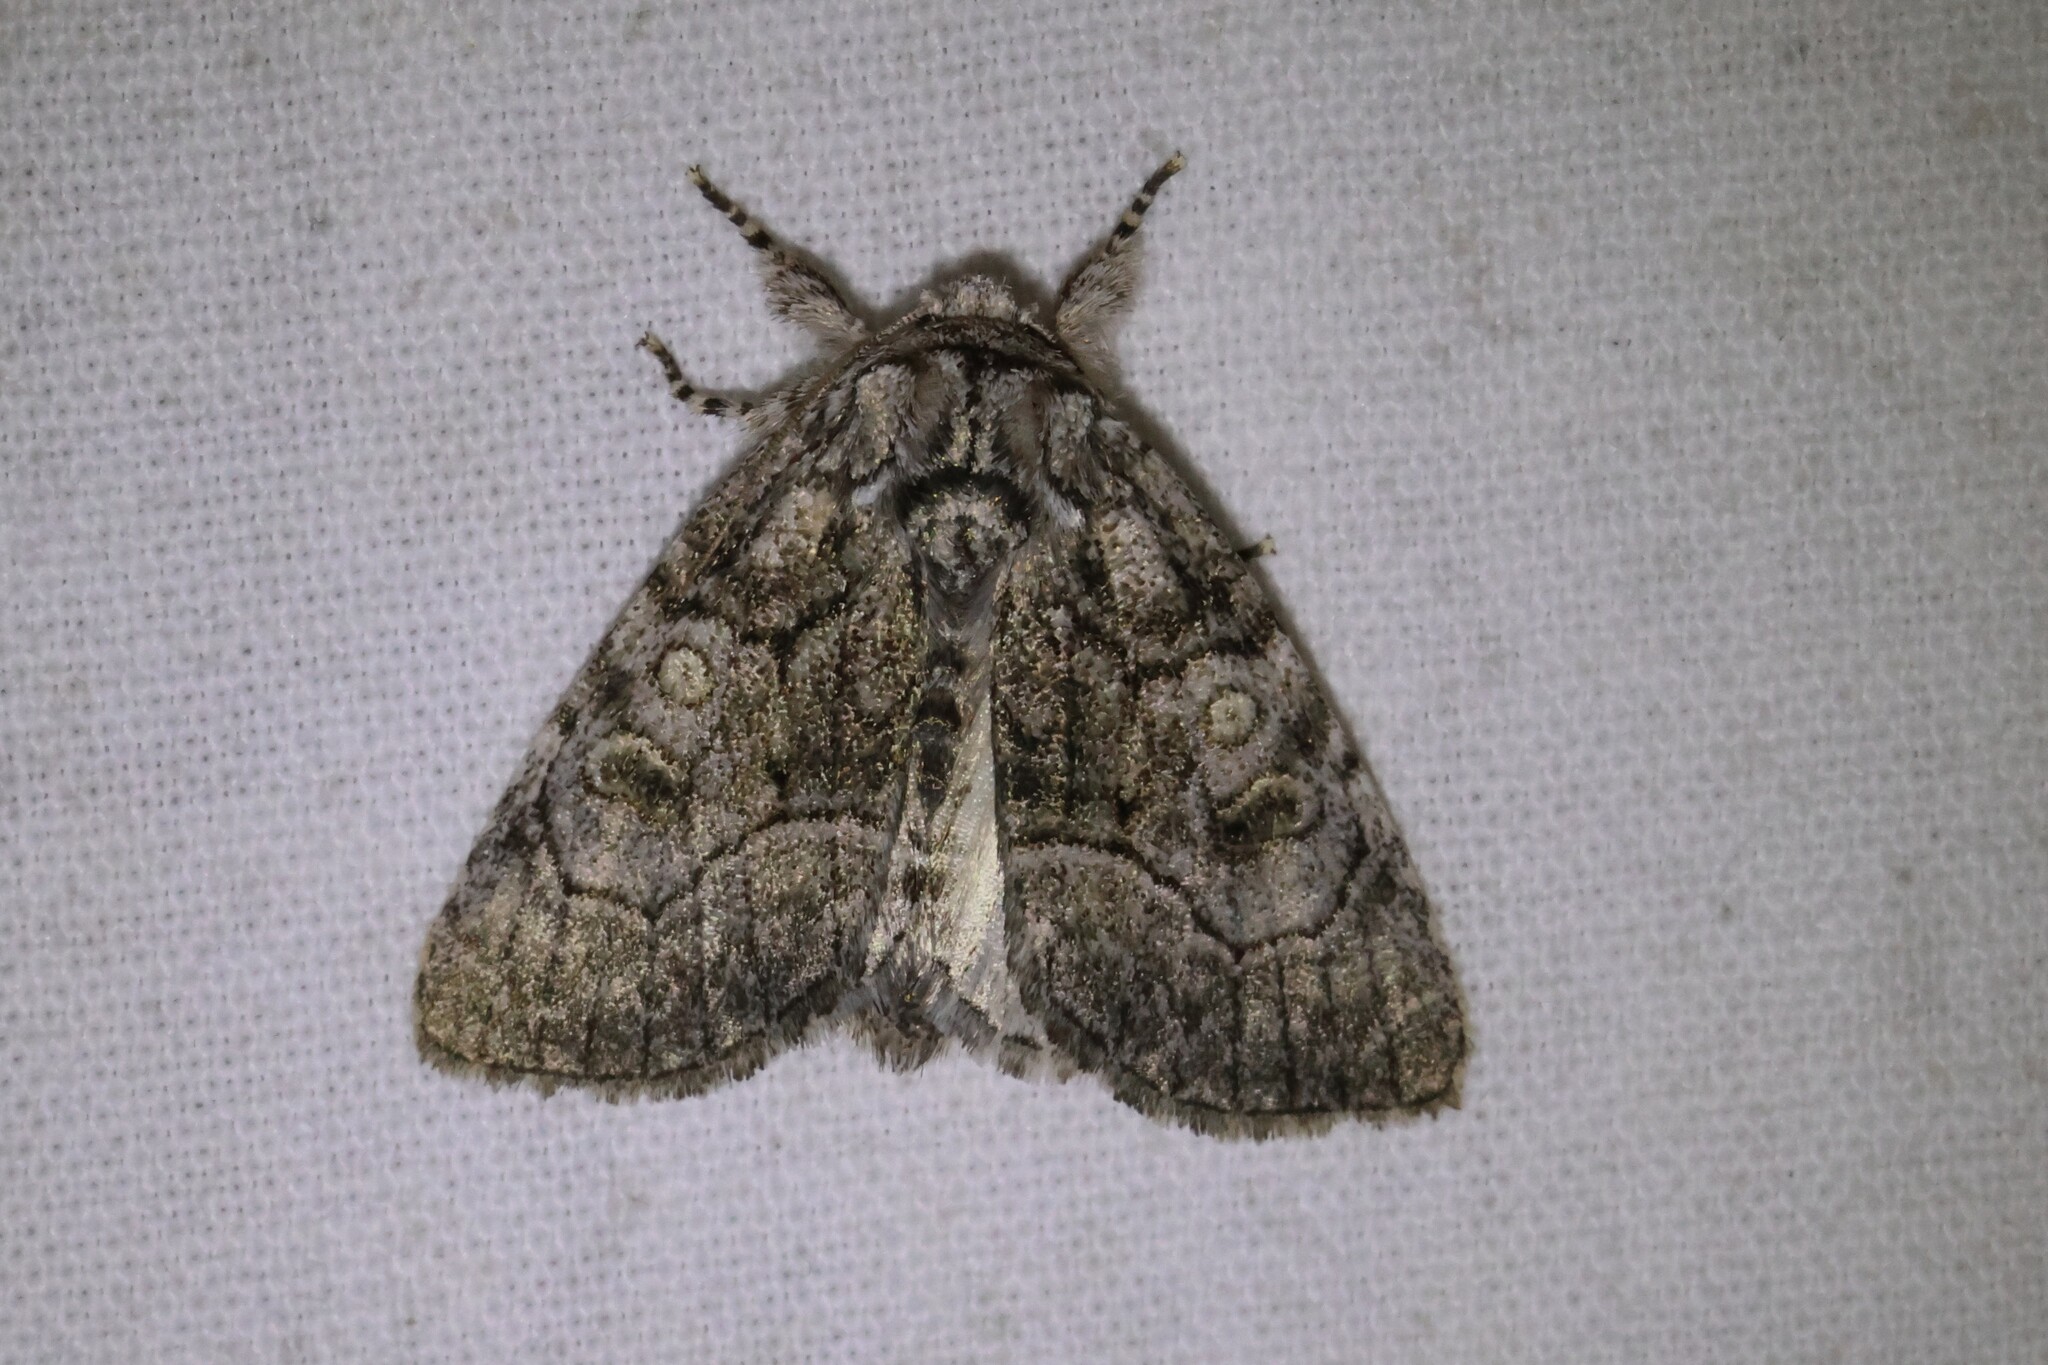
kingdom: Animalia
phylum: Arthropoda
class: Insecta
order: Lepidoptera
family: Noctuidae
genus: Raphia
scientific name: Raphia frater
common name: Brother
